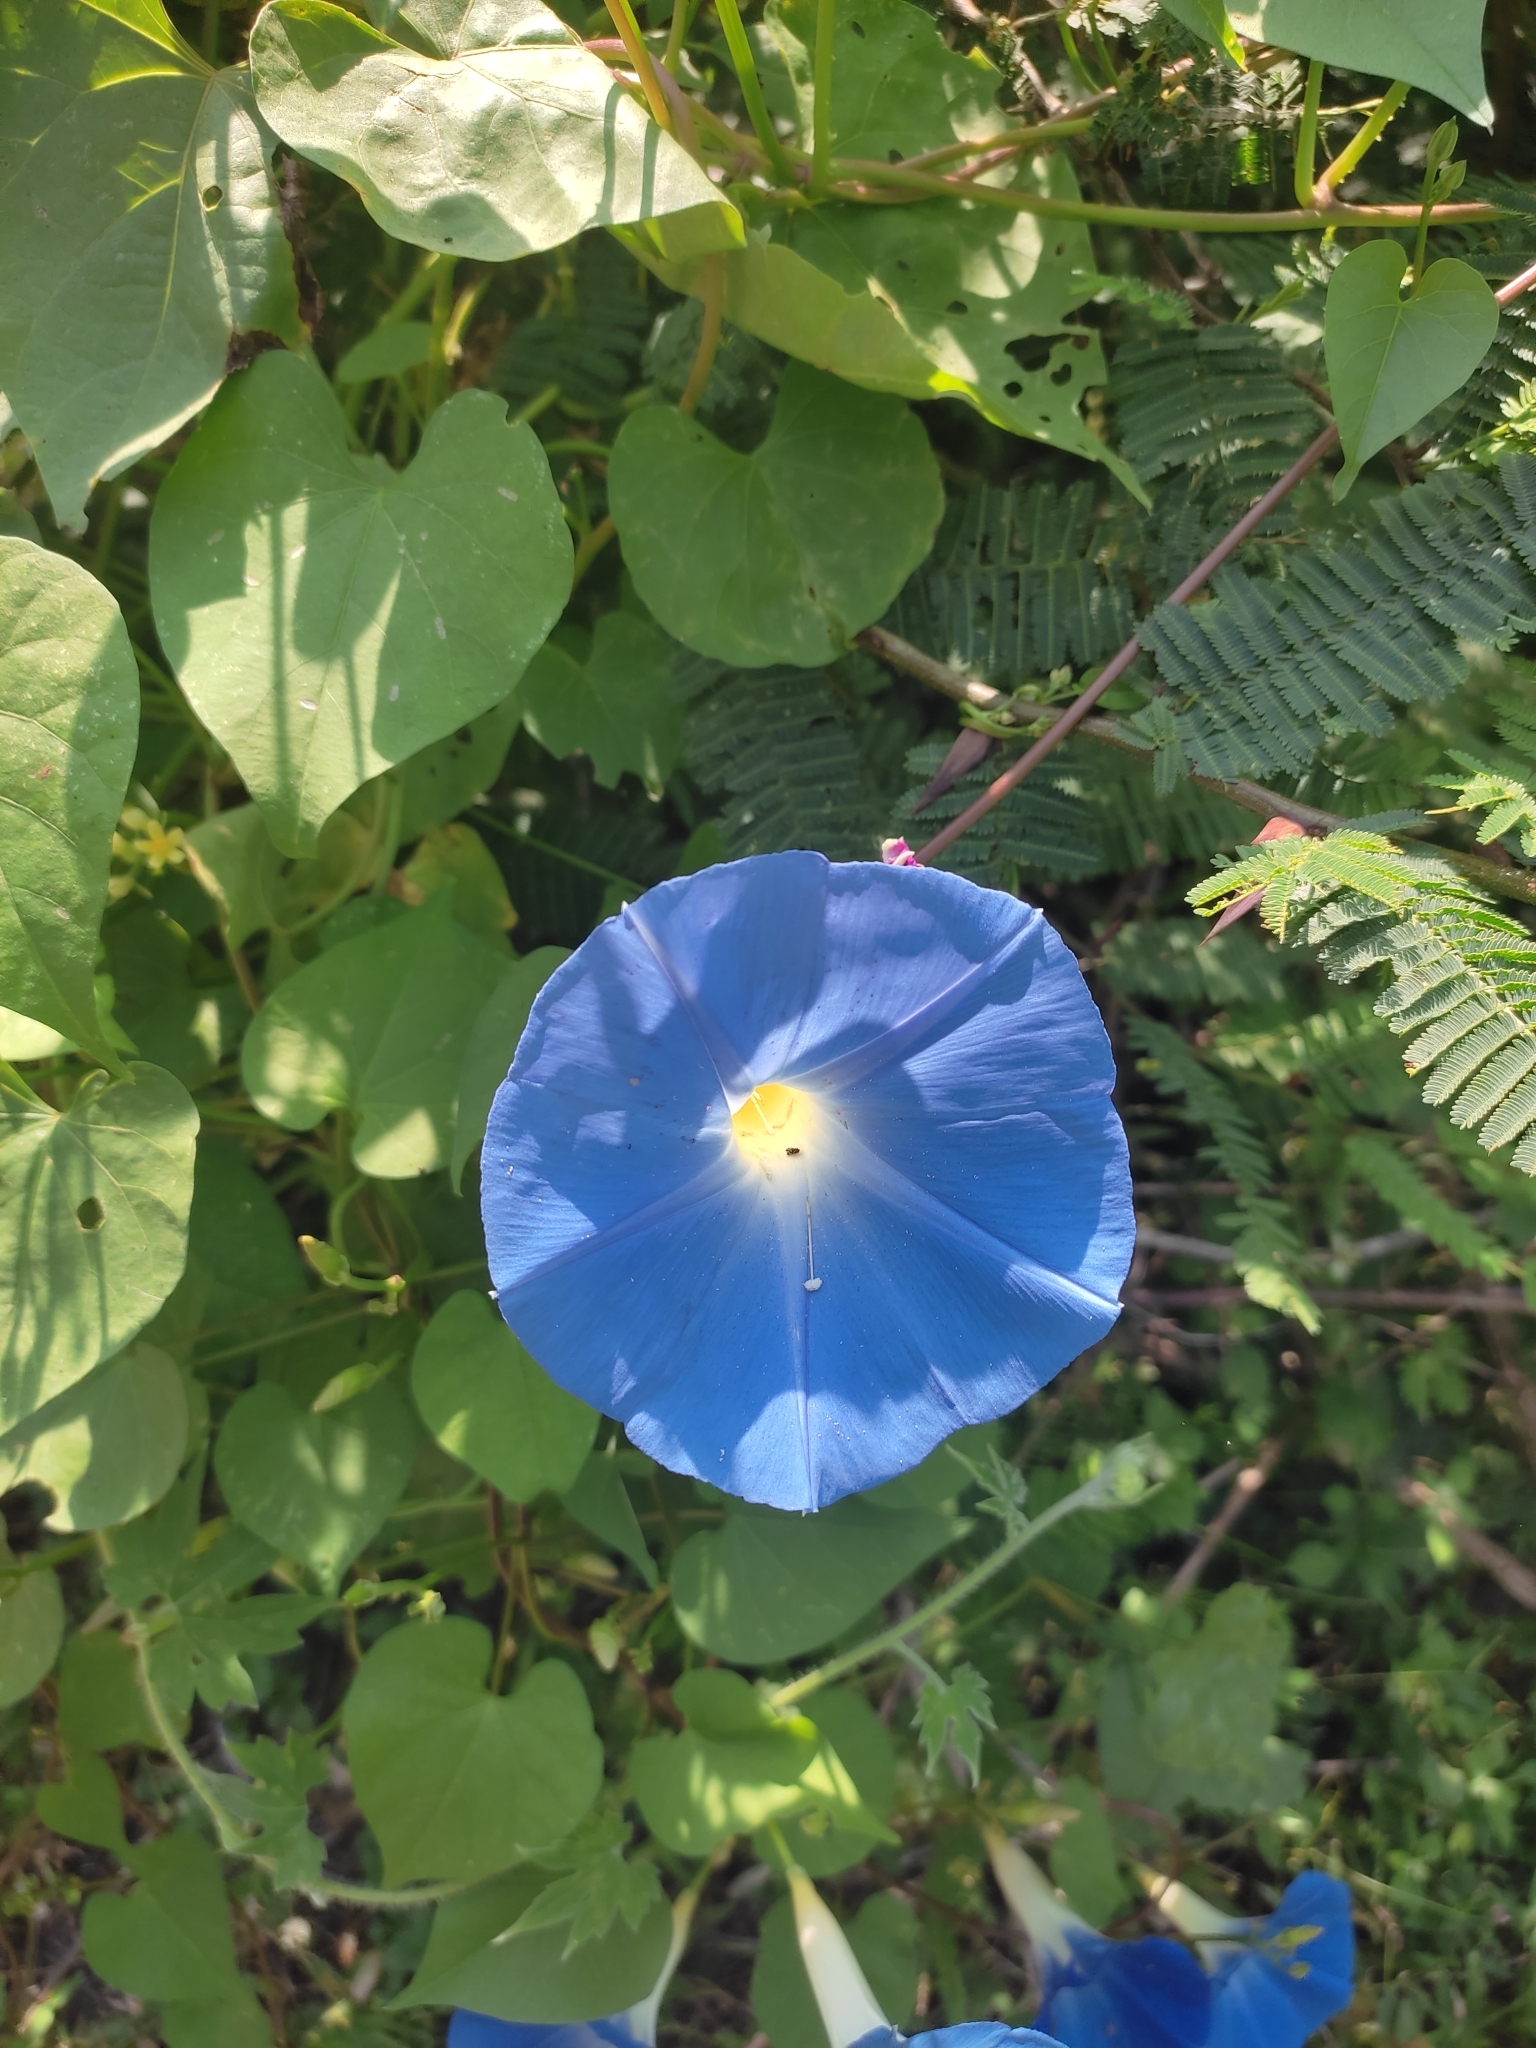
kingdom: Plantae
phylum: Tracheophyta
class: Magnoliopsida
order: Solanales
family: Convolvulaceae
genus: Ipomoea
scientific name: Ipomoea tricolor
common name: Morning-glory
